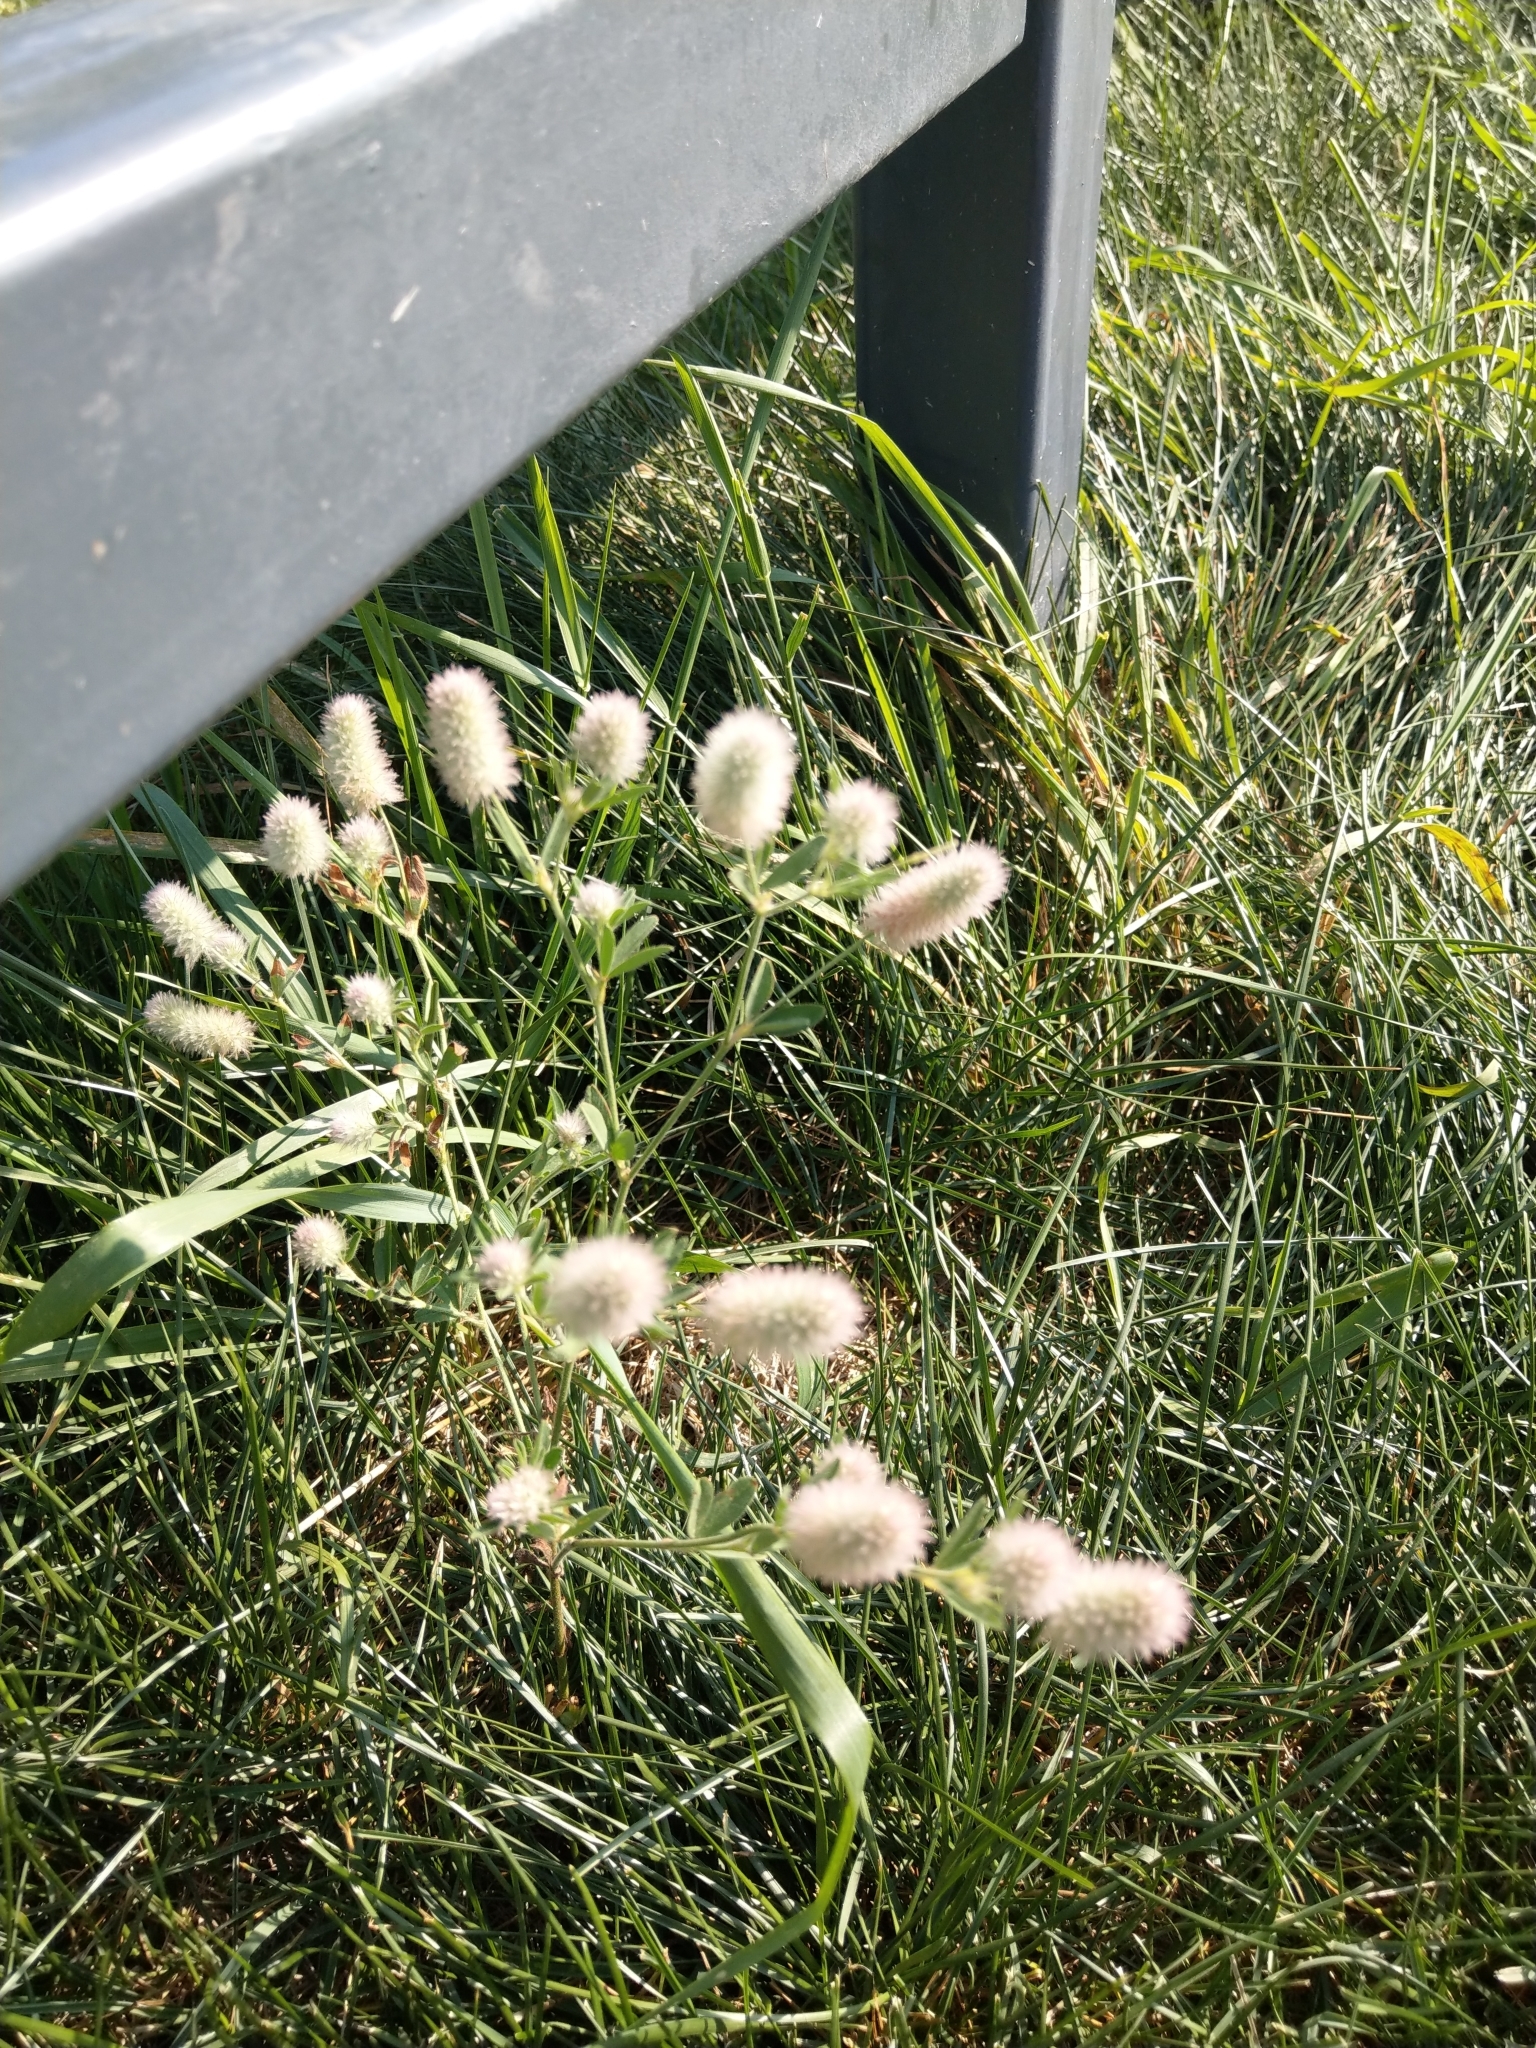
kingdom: Plantae
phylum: Tracheophyta
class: Magnoliopsida
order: Fabales
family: Fabaceae
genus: Trifolium
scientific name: Trifolium arvense
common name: Hare's-foot clover
